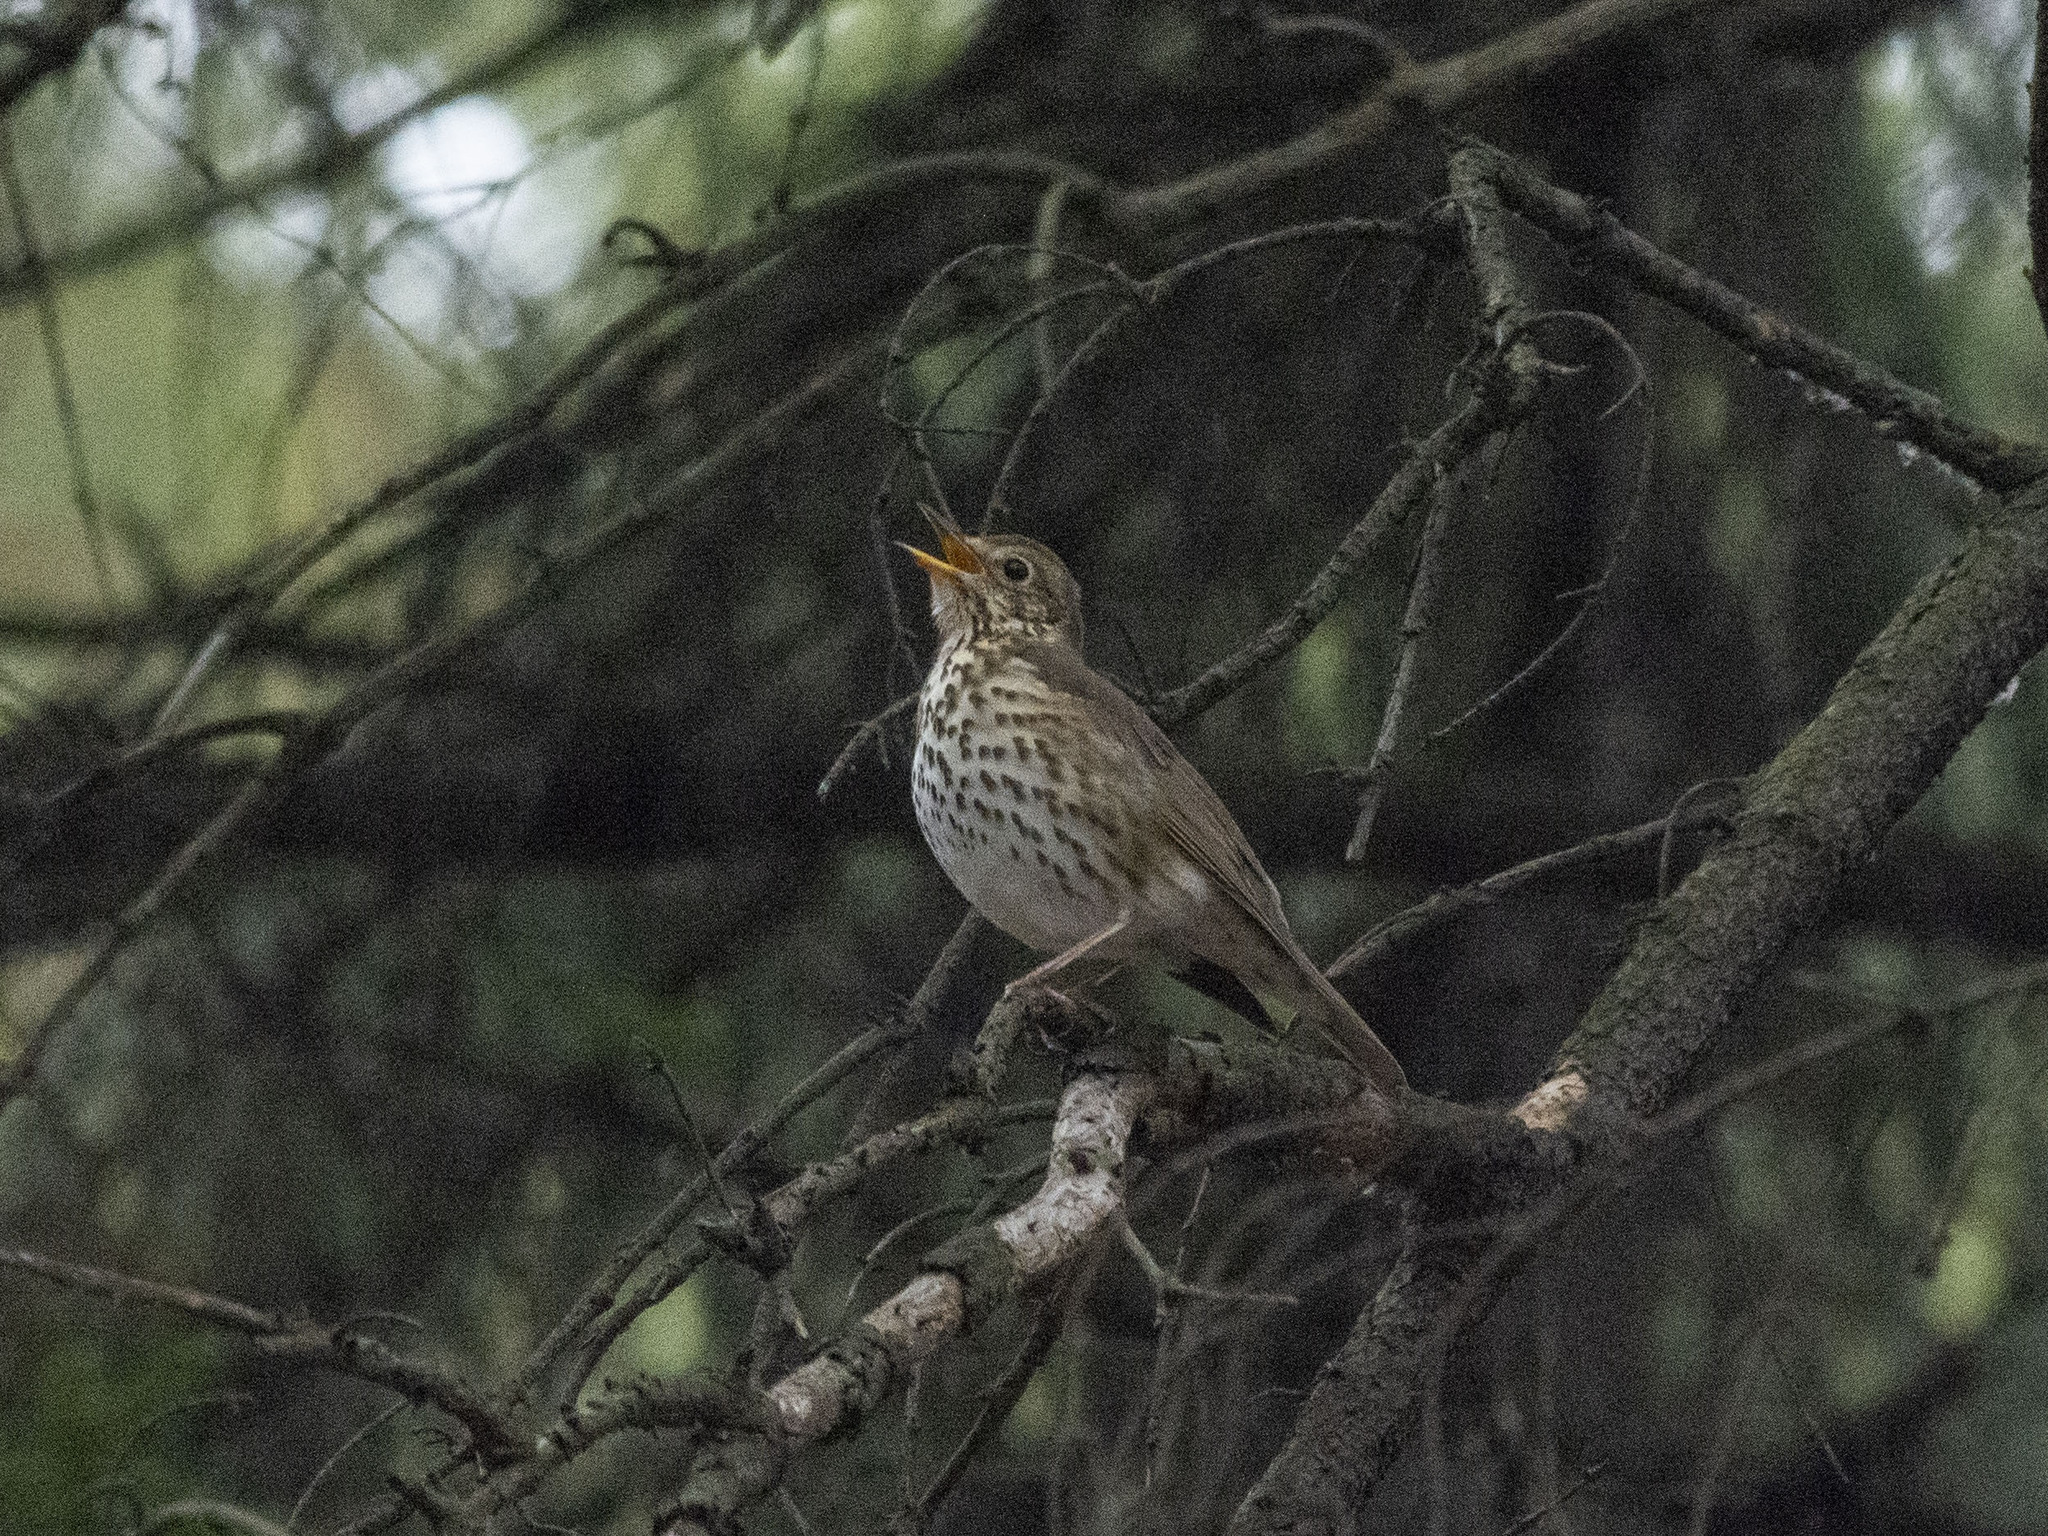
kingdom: Animalia
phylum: Chordata
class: Aves
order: Passeriformes
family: Turdidae
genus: Turdus
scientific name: Turdus philomelos
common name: Song thrush
